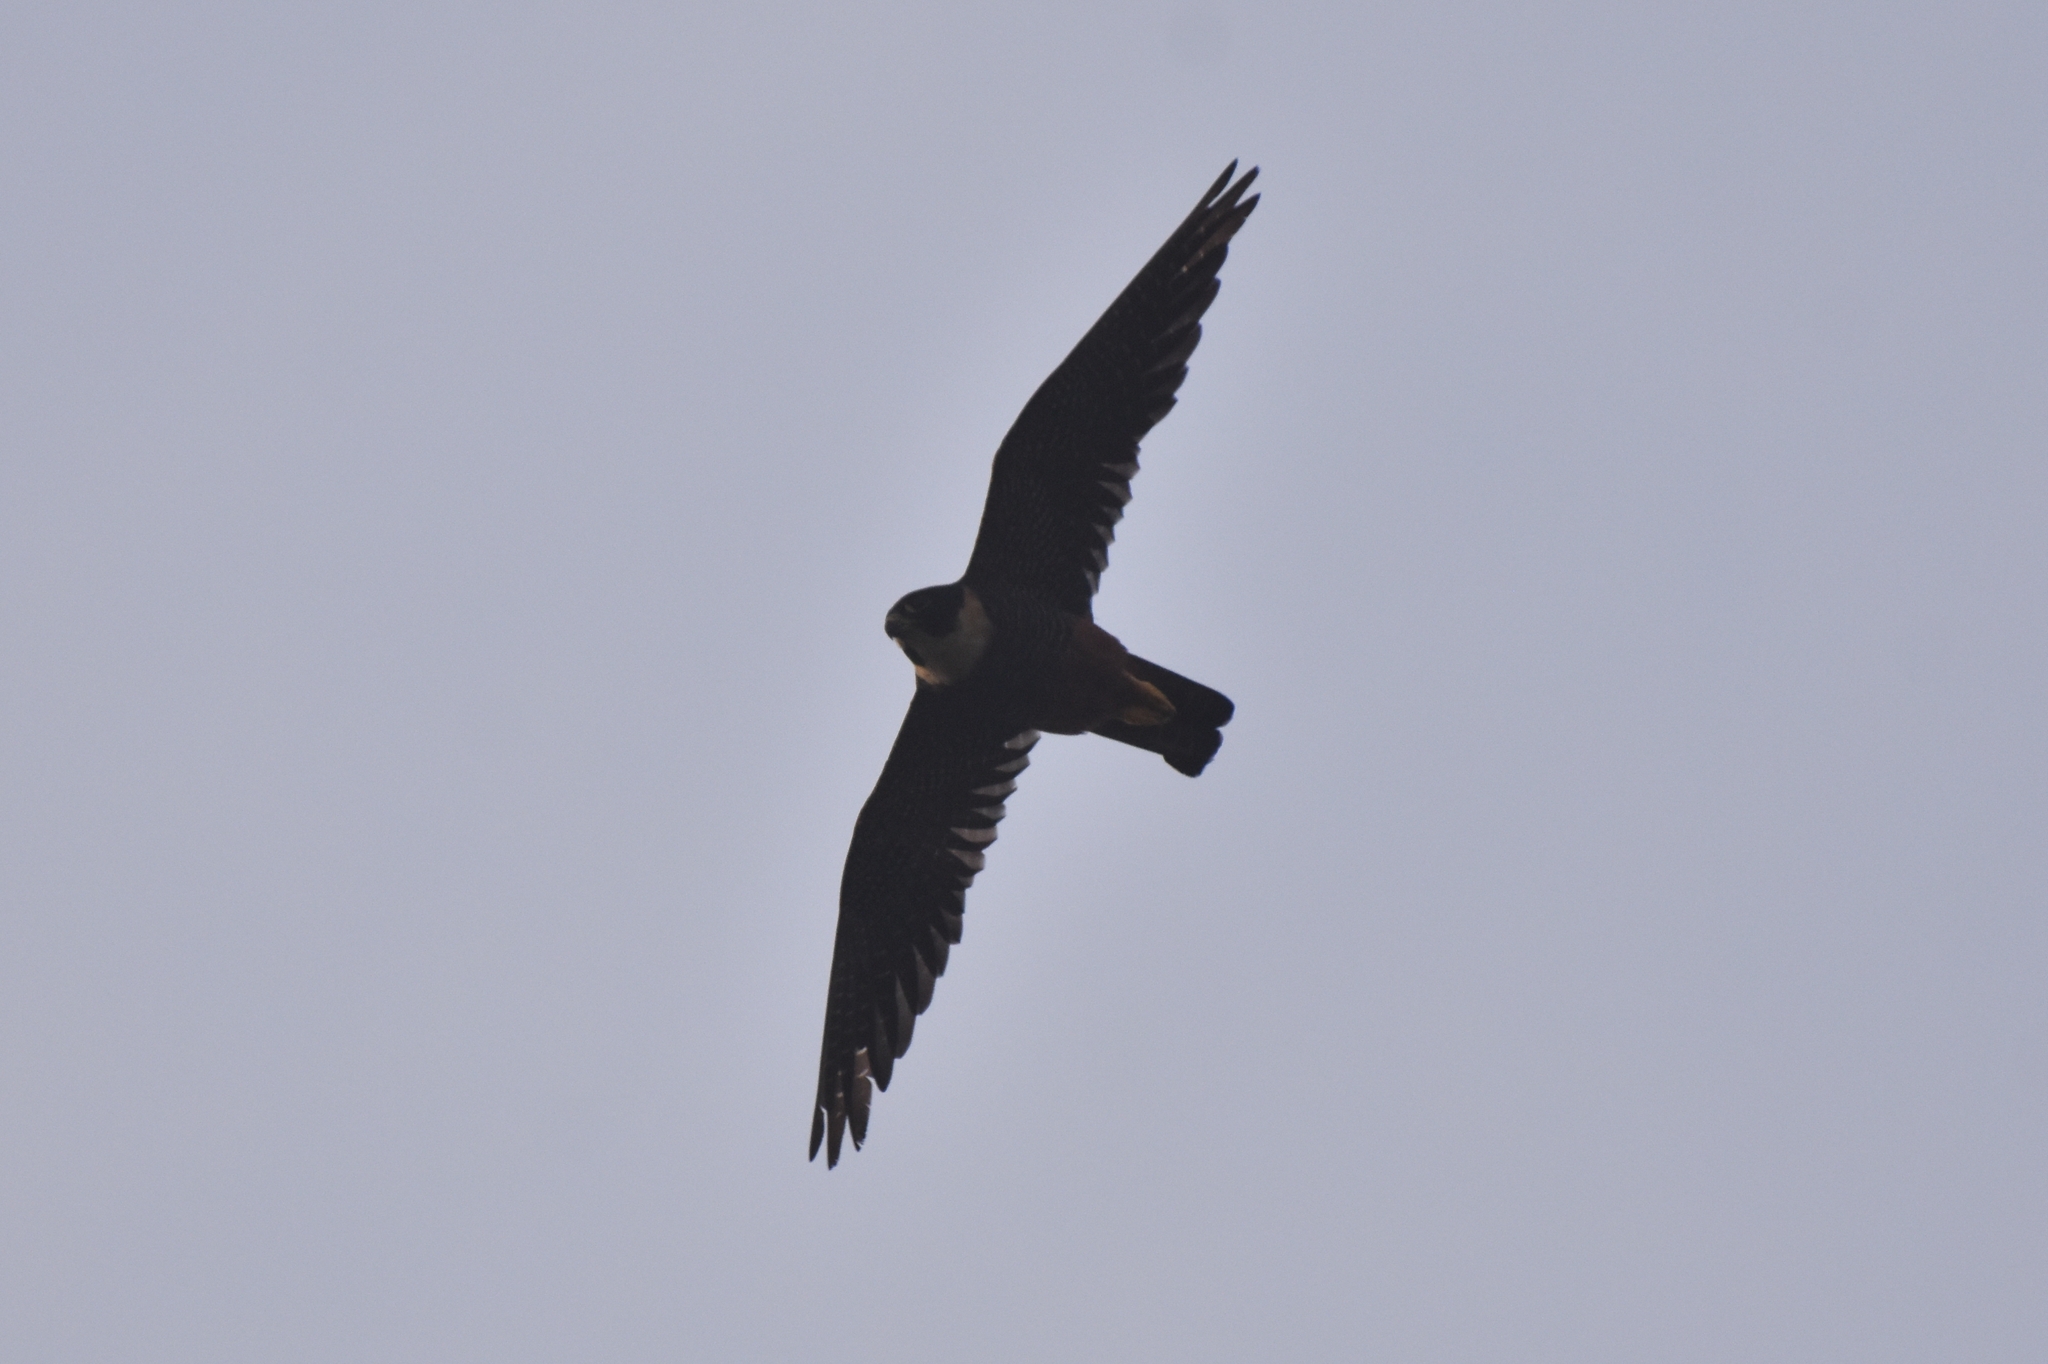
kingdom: Animalia
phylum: Chordata
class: Aves
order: Falconiformes
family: Falconidae
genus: Falco
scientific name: Falco rufigularis
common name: Bat falcon
